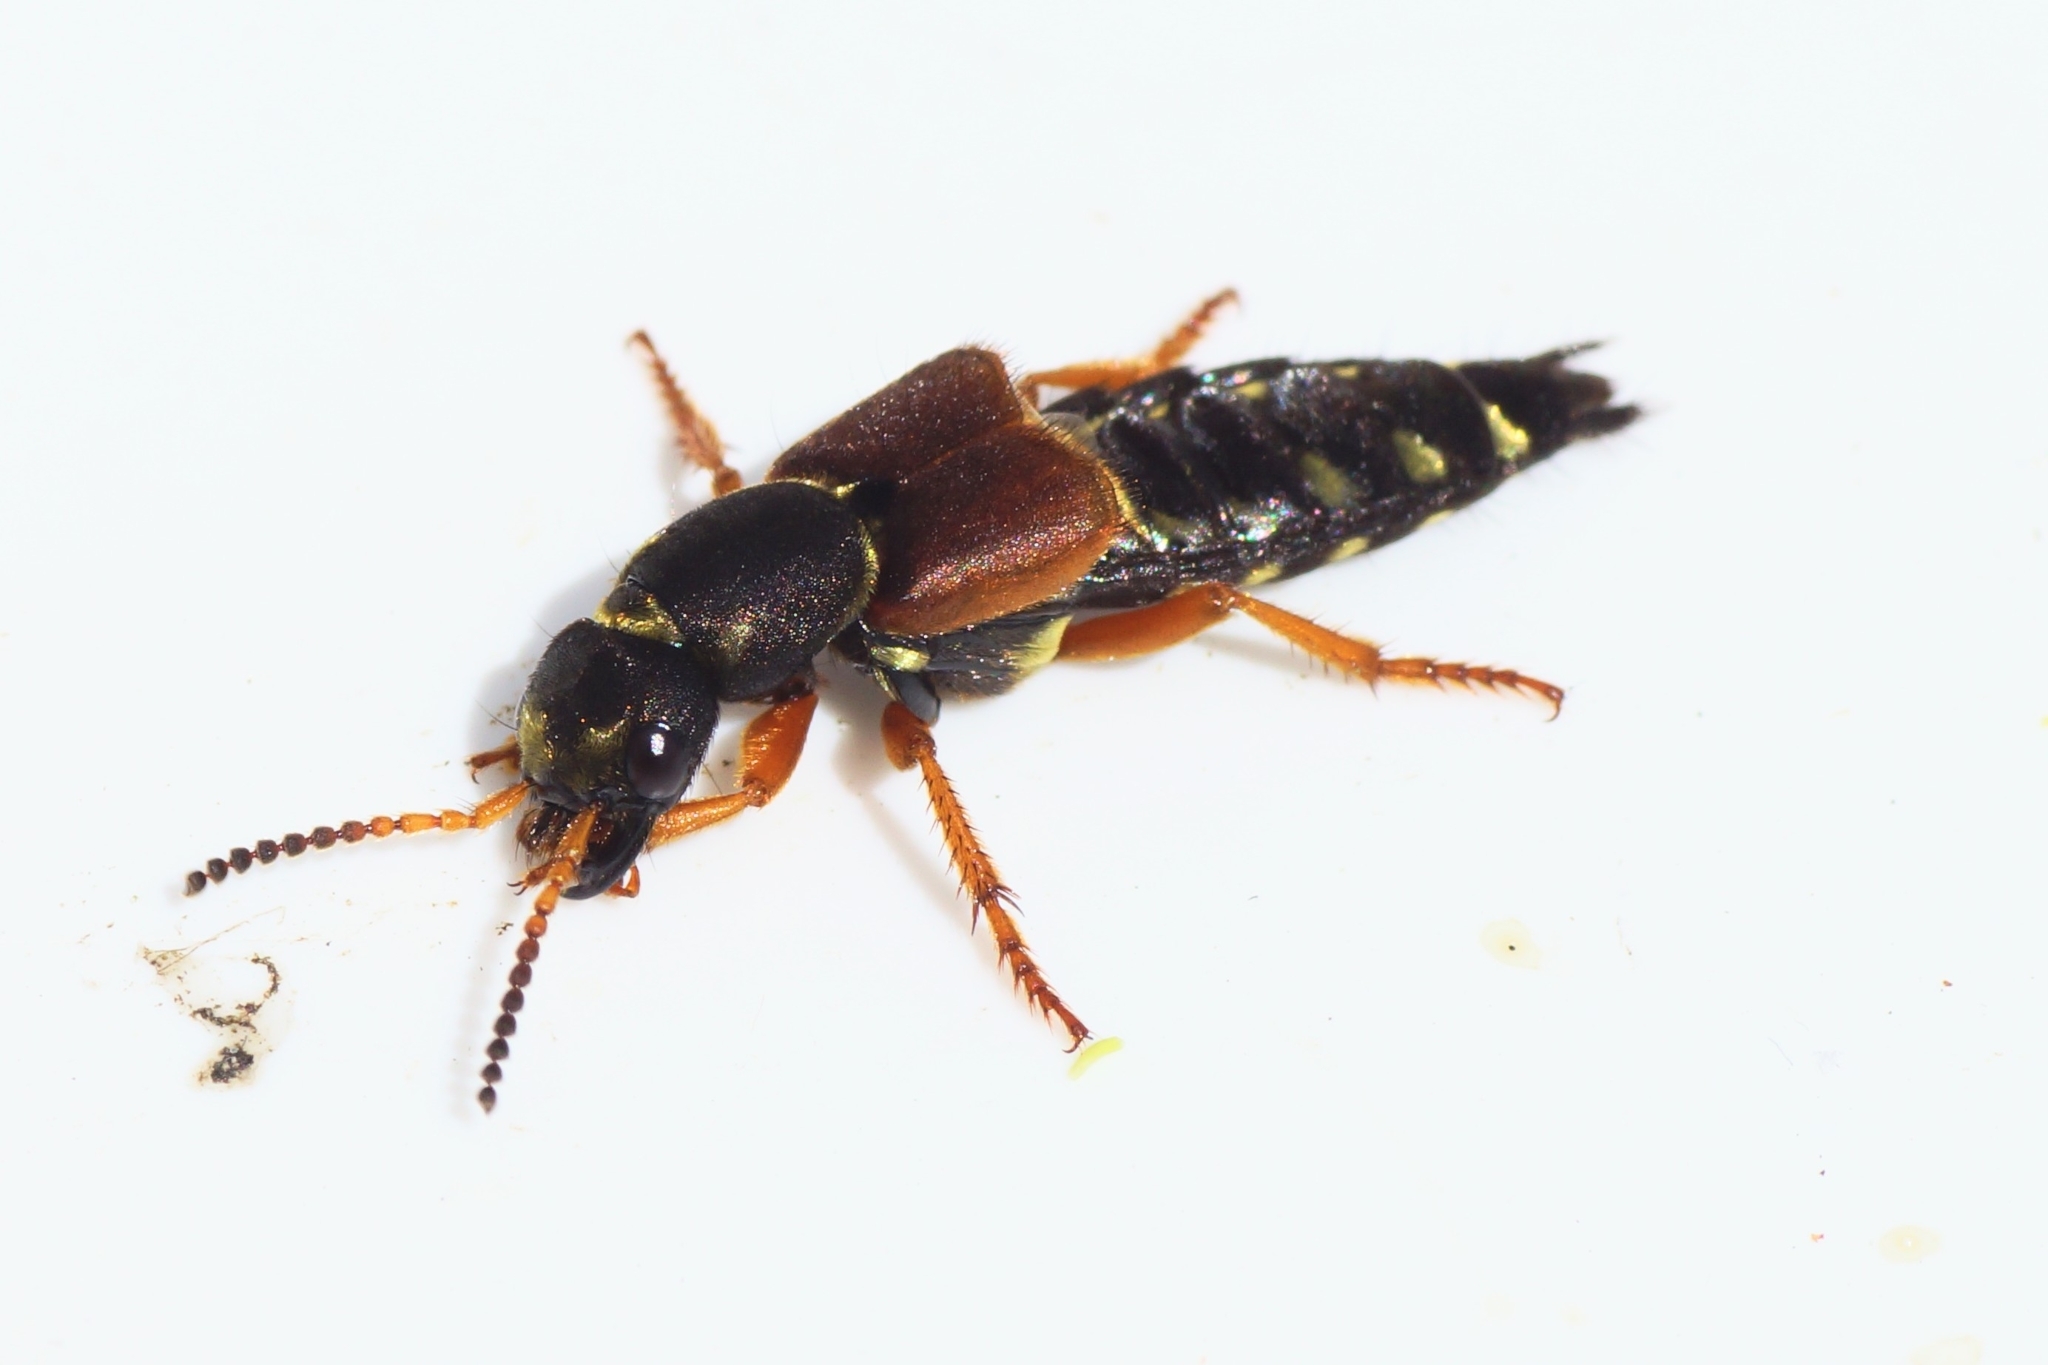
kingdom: Animalia
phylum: Arthropoda
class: Insecta
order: Coleoptera
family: Staphylinidae
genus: Staphylinus
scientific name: Staphylinus dimidiaticornis
